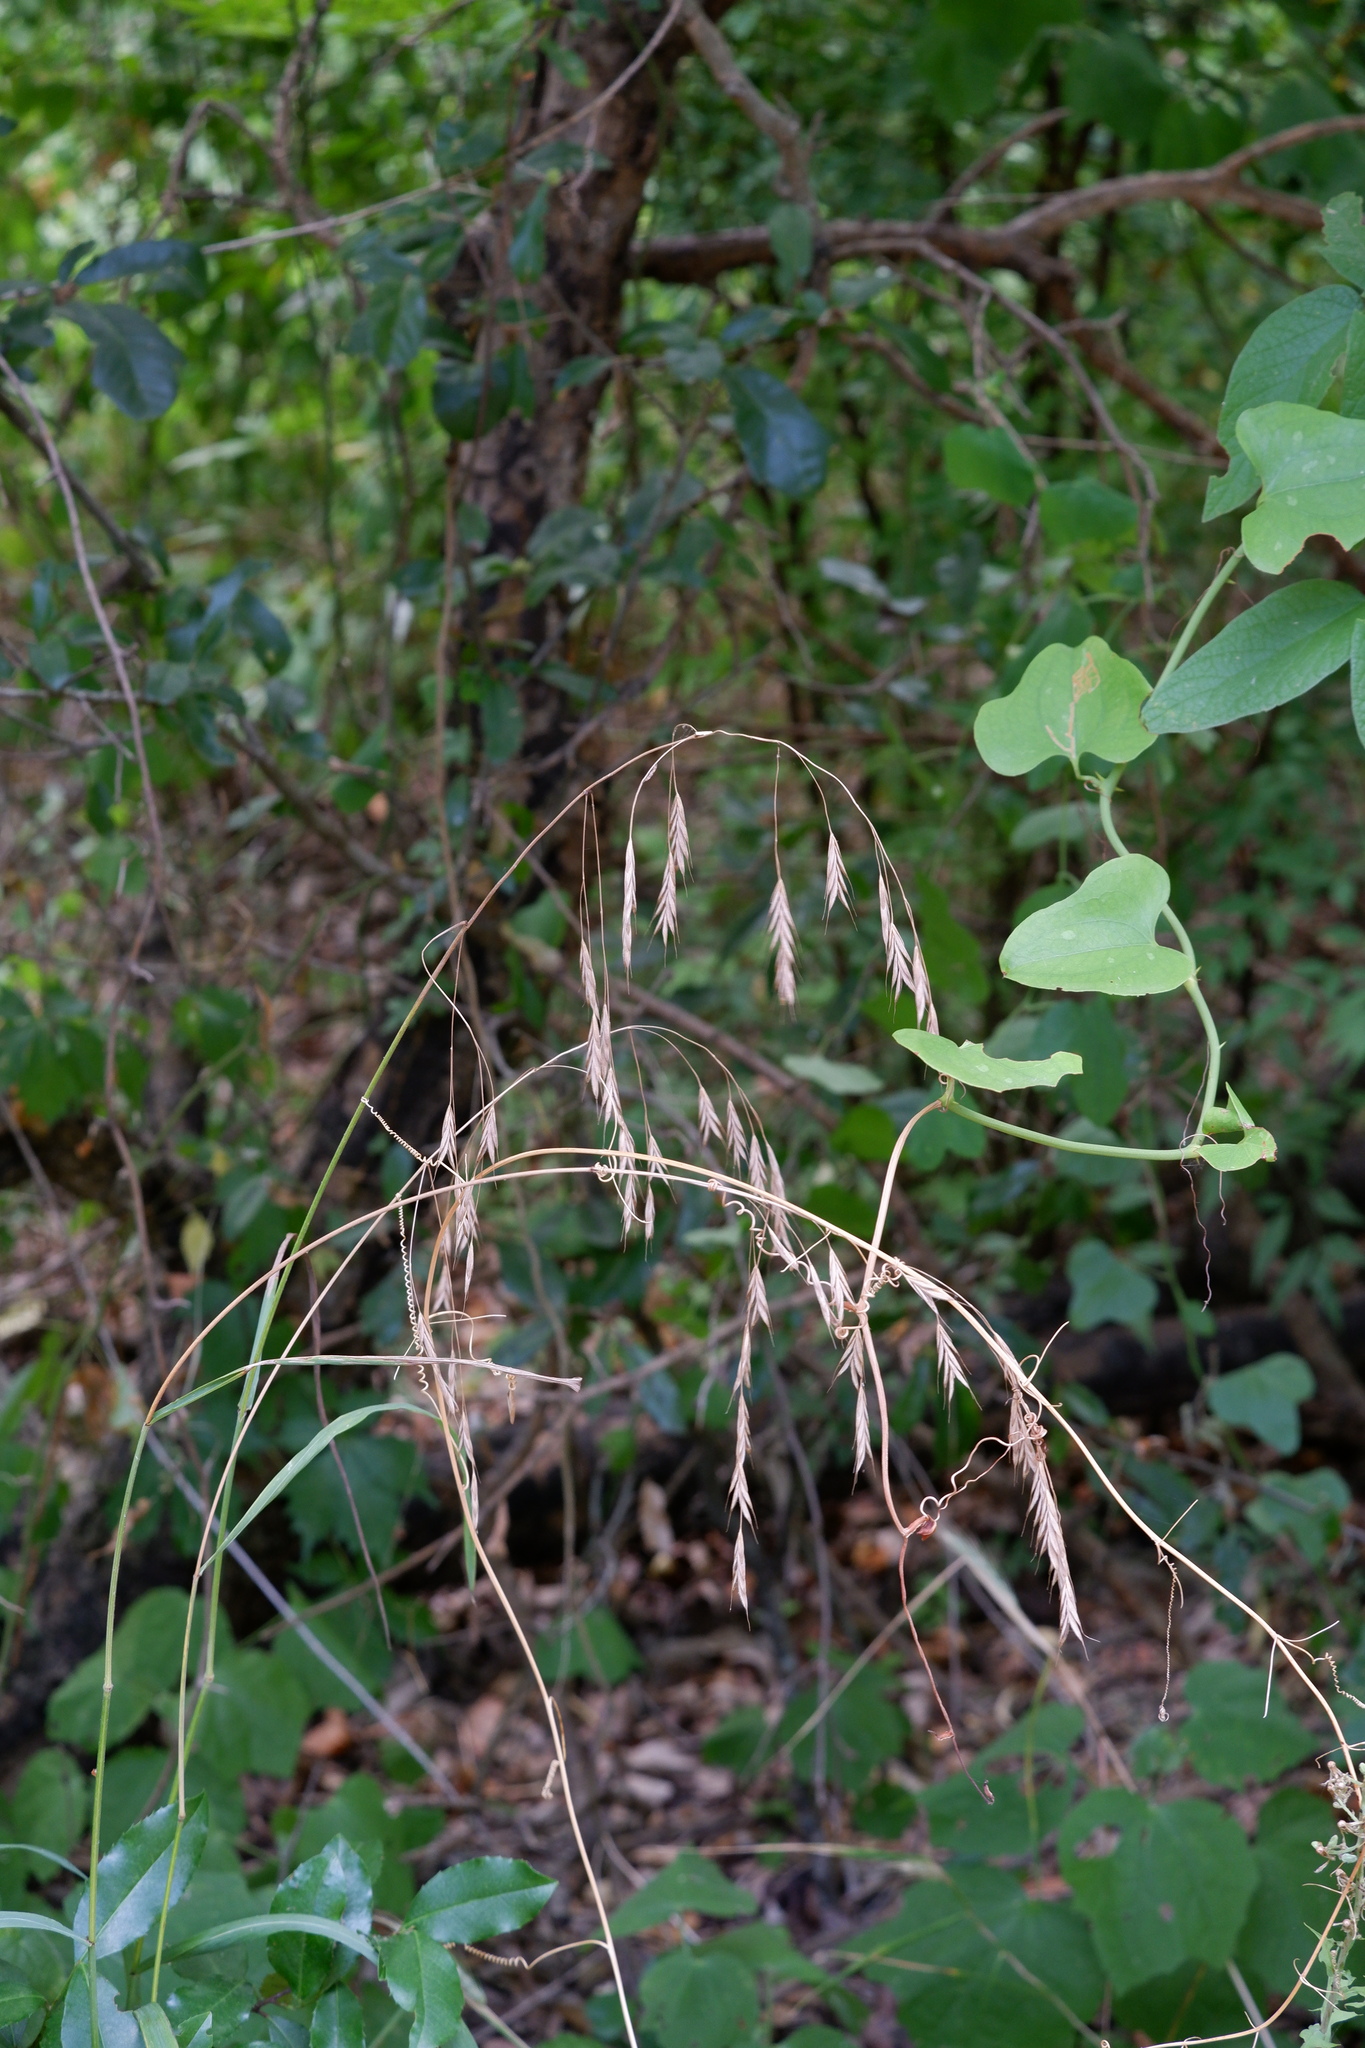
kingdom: Plantae
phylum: Tracheophyta
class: Liliopsida
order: Poales
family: Poaceae
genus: Bromus
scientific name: Bromus pubescens
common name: Hairy wood brome grass
